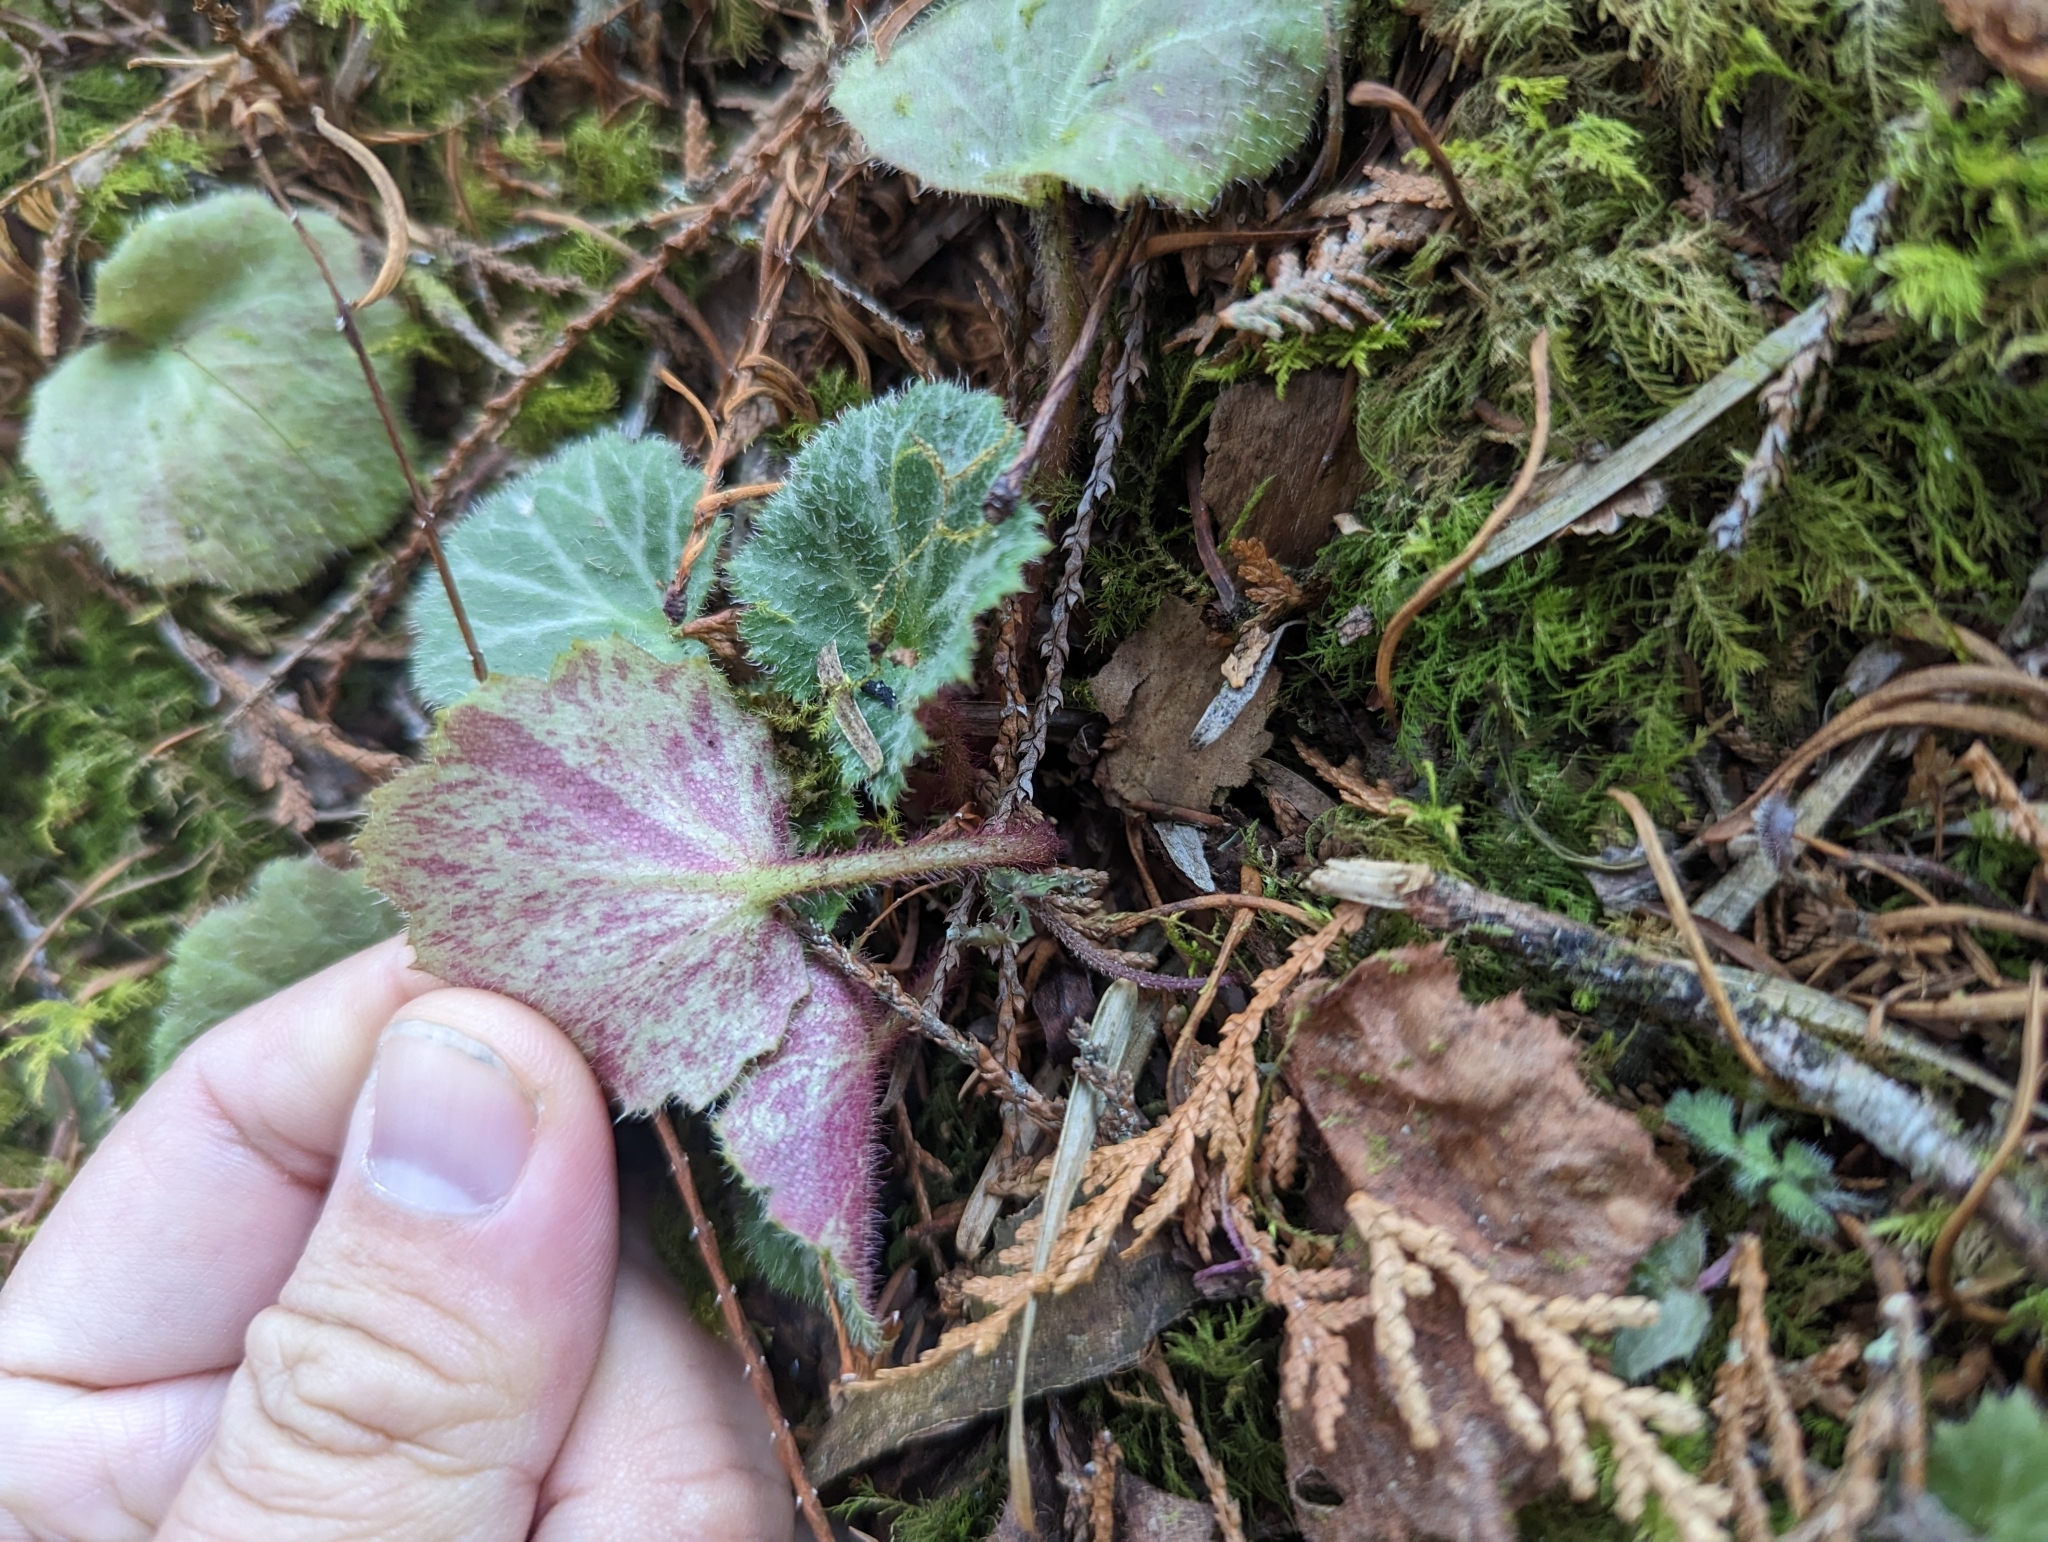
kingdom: Plantae
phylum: Tracheophyta
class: Magnoliopsida
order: Saxifragales
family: Saxifragaceae
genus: Saxifraga
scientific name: Saxifraga stolonifera
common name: Creeping saxifrage
